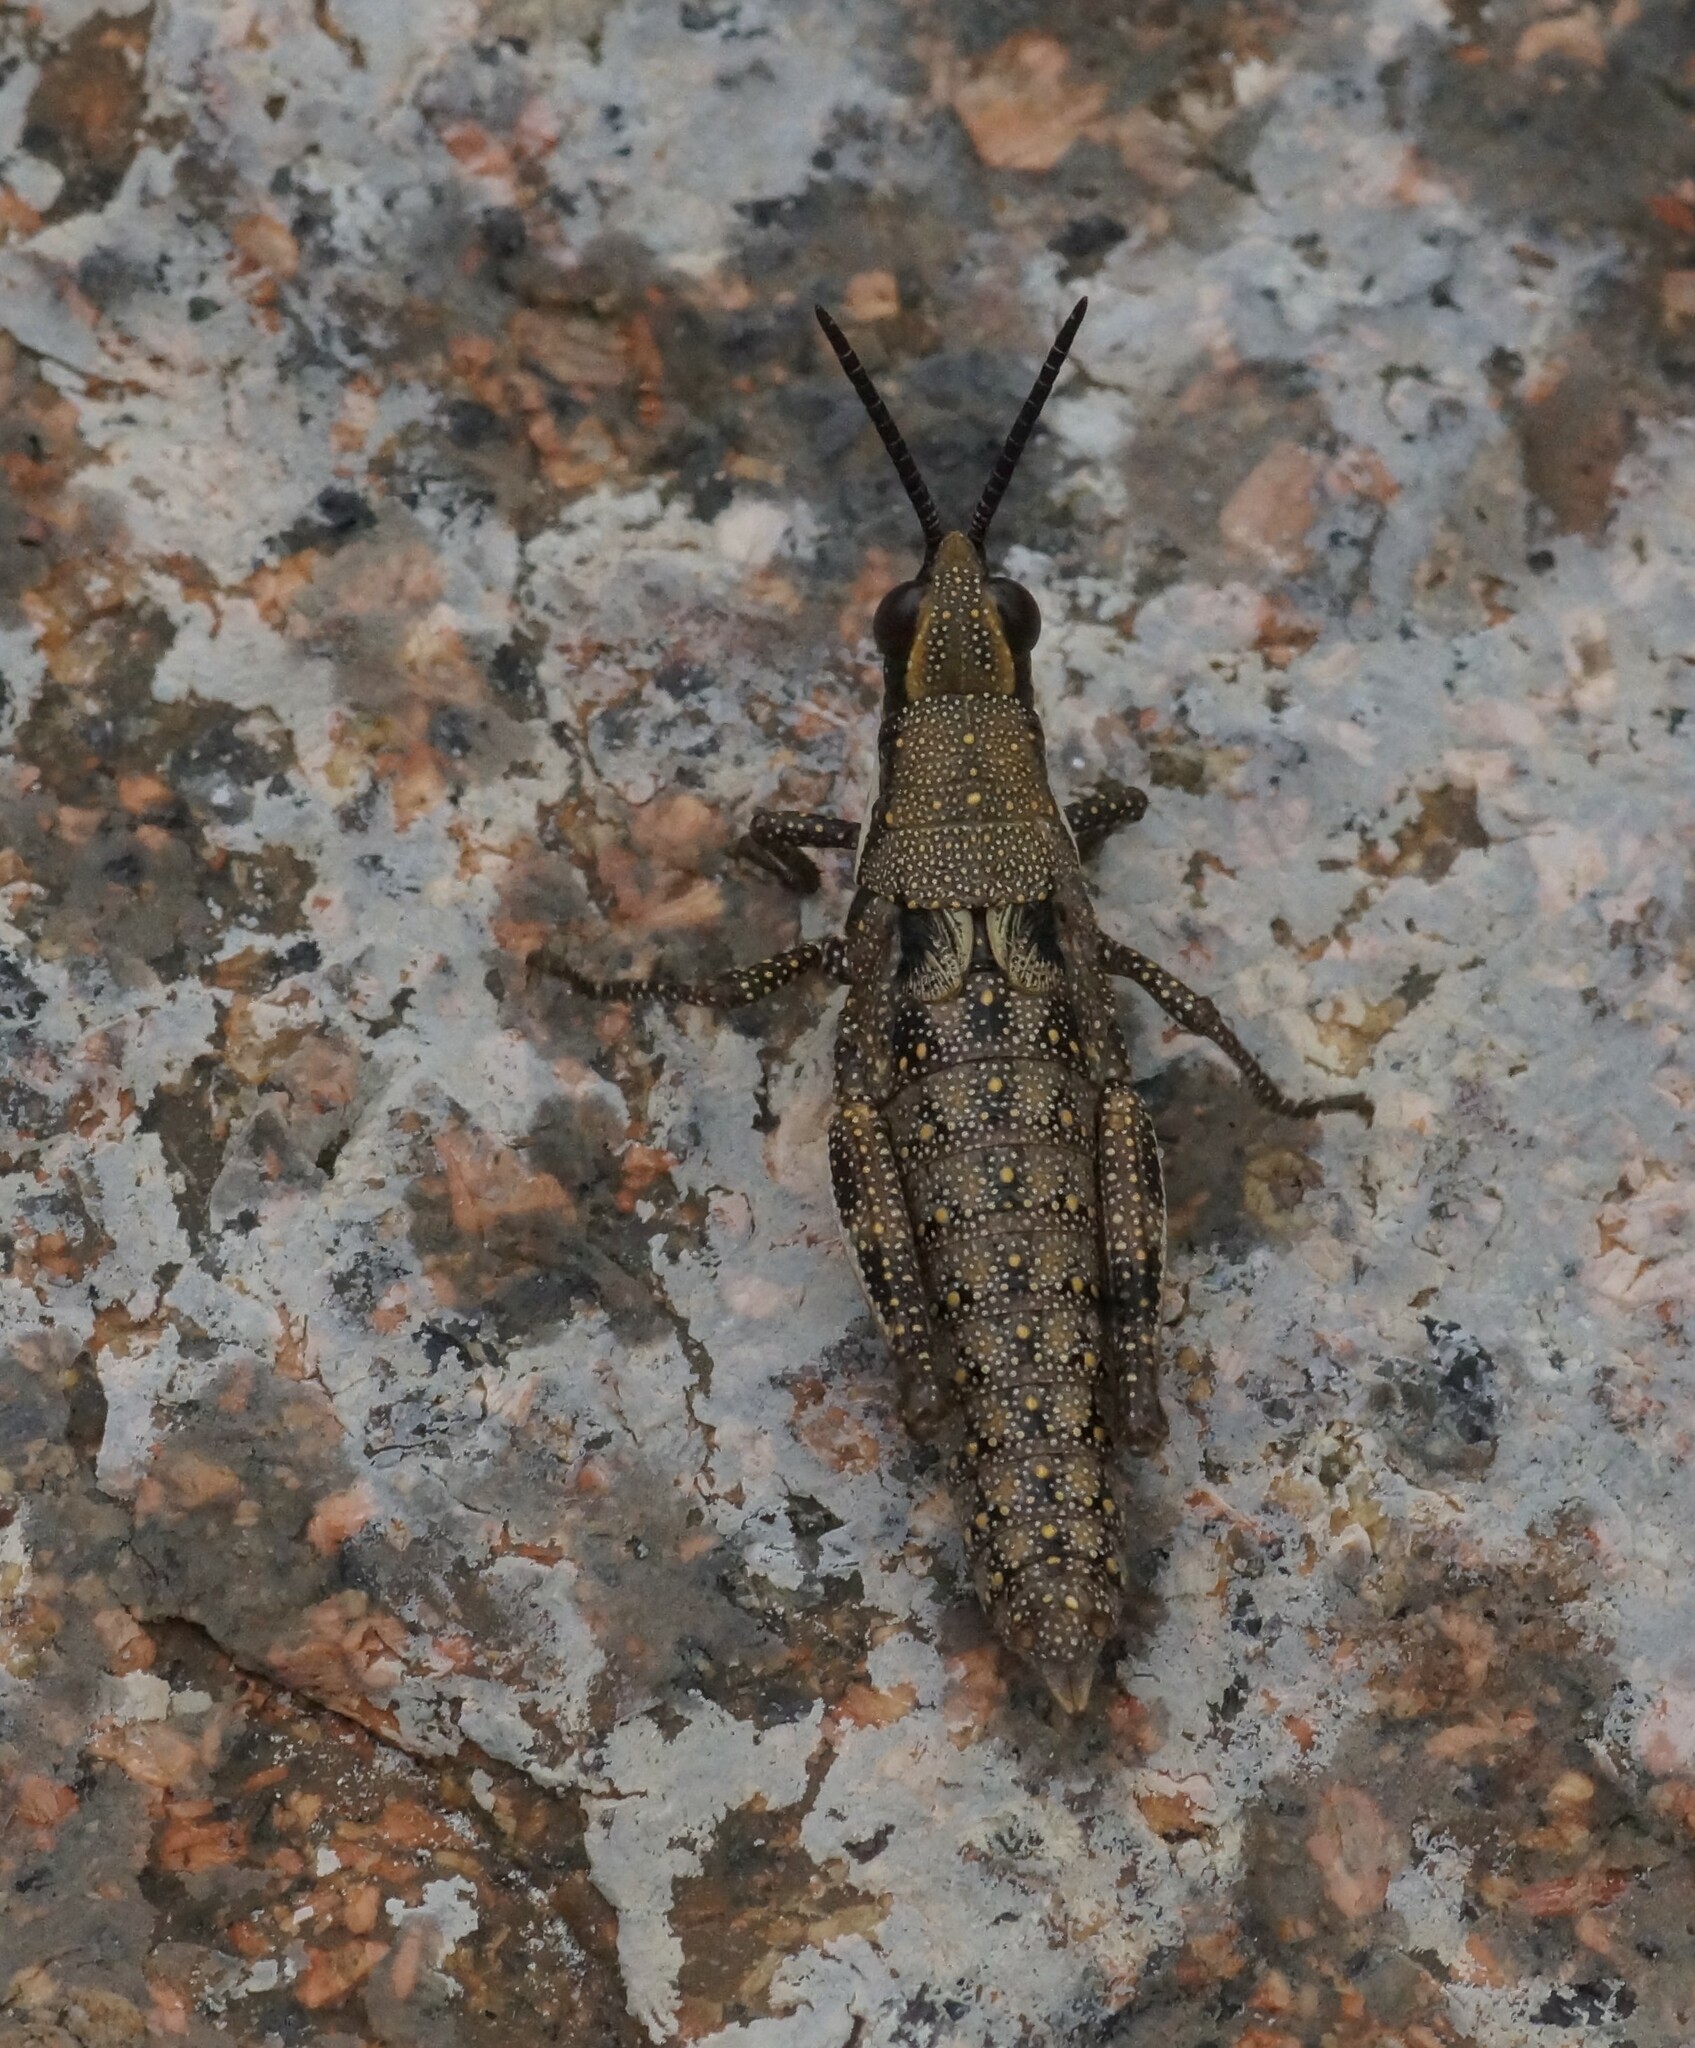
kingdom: Animalia
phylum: Arthropoda
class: Insecta
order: Orthoptera
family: Pyrgomorphidae
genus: Monistria
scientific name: Monistria pustulifera
